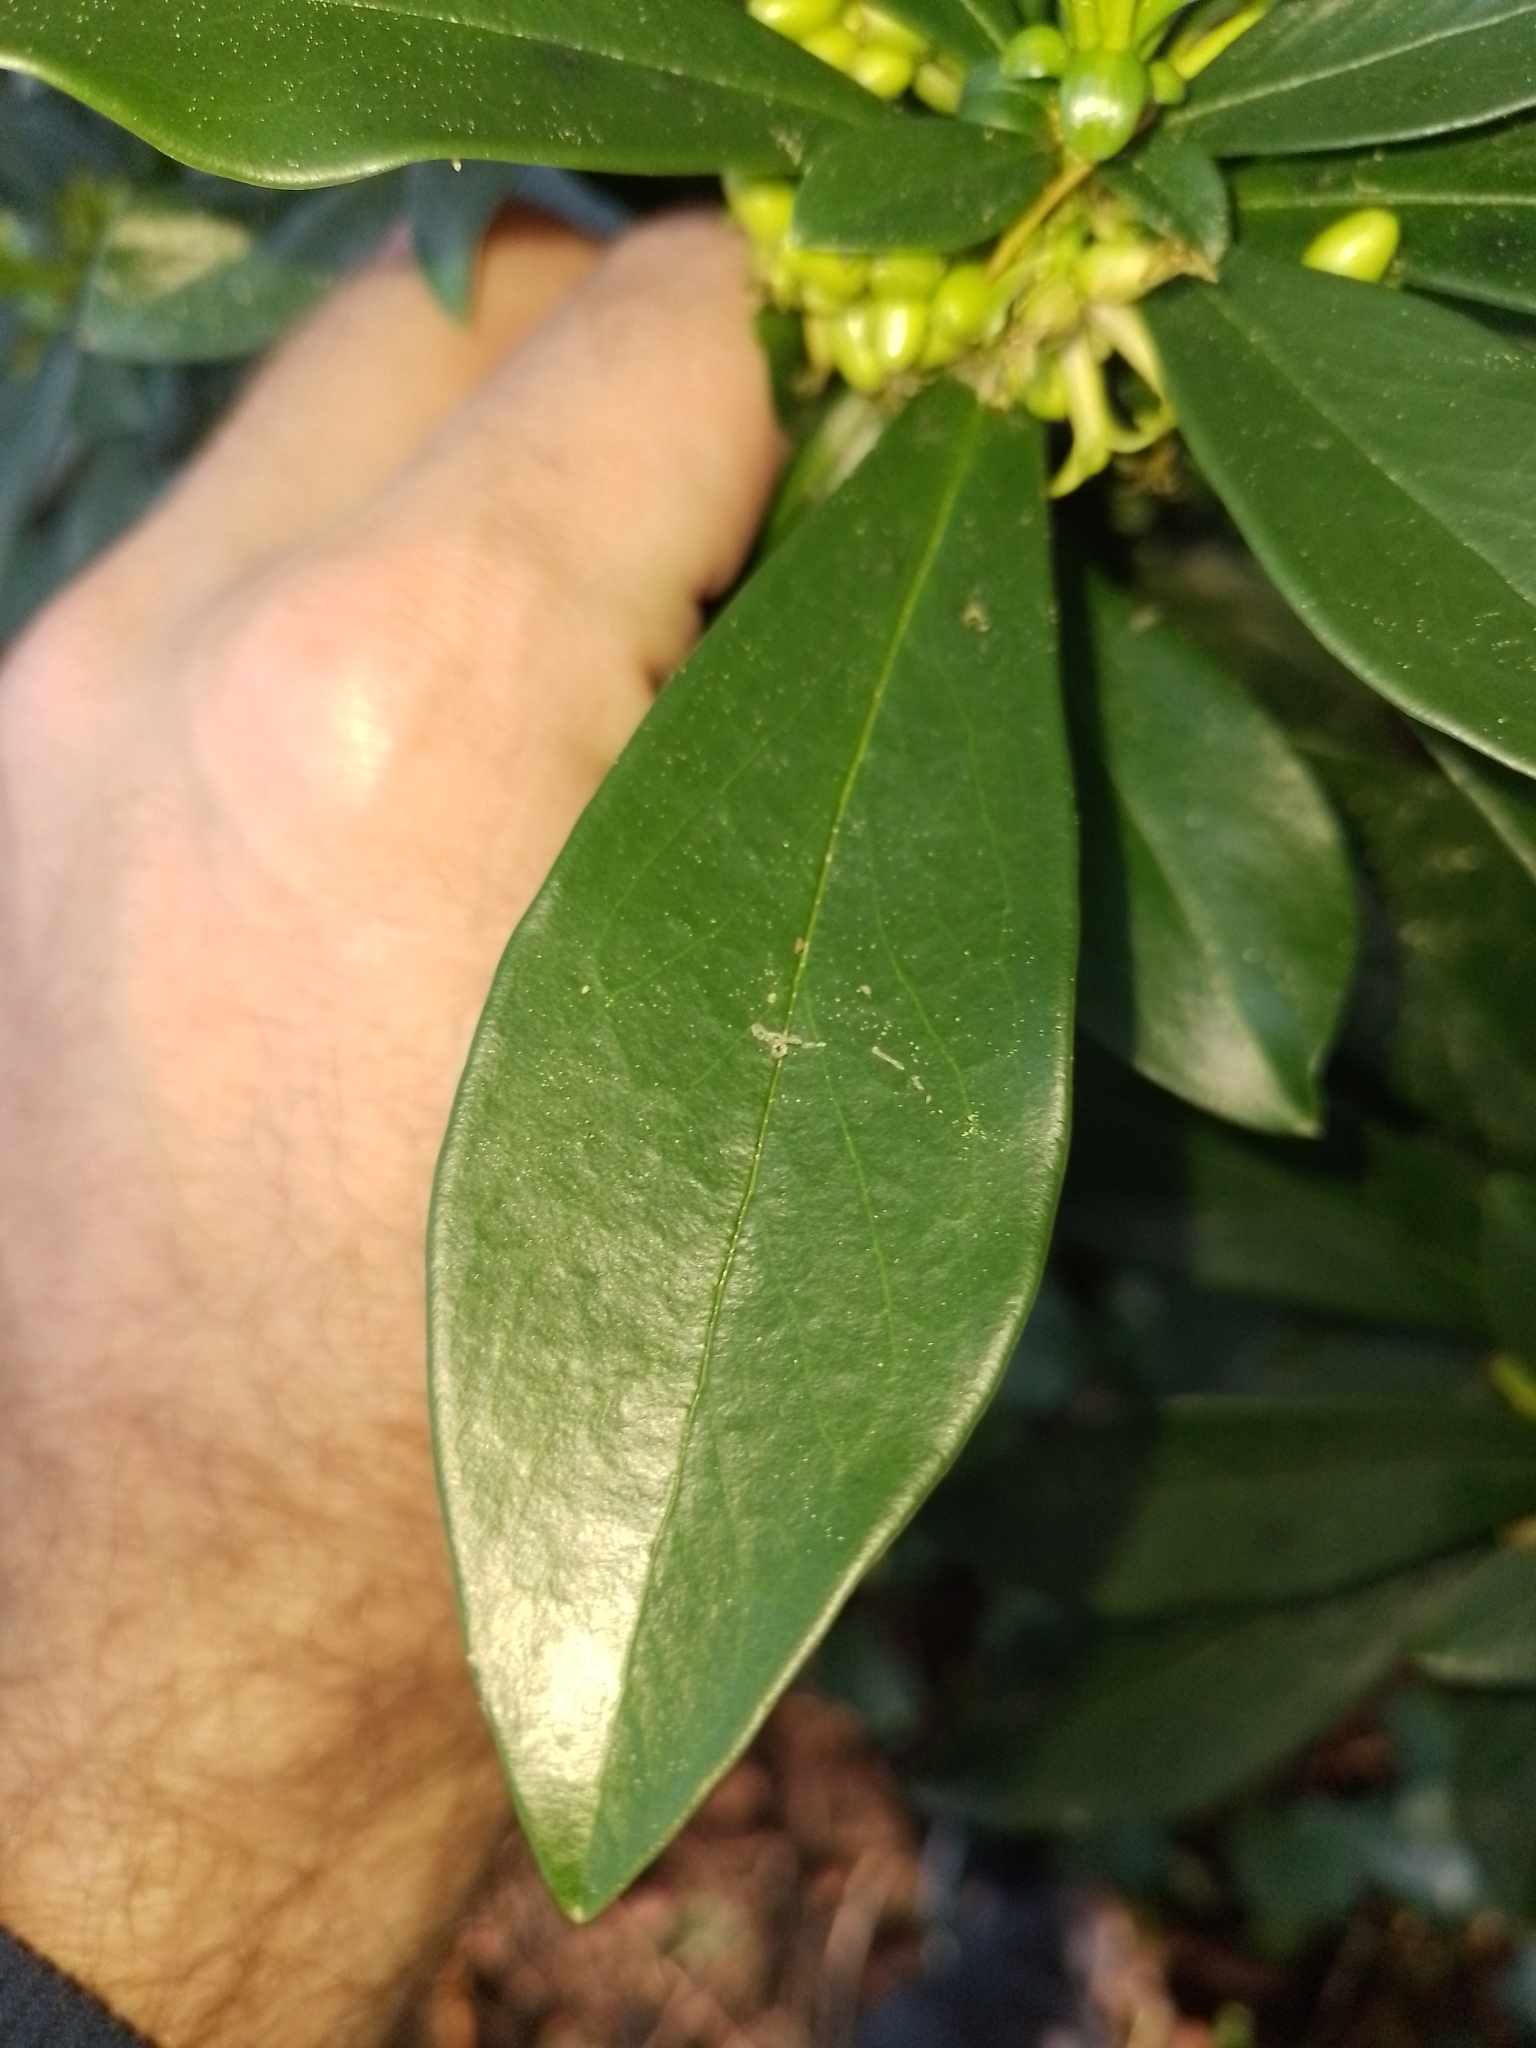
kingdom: Plantae
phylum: Tracheophyta
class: Magnoliopsida
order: Malvales
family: Thymelaeaceae
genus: Daphne
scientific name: Daphne laureola
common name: Spurge-laurel
